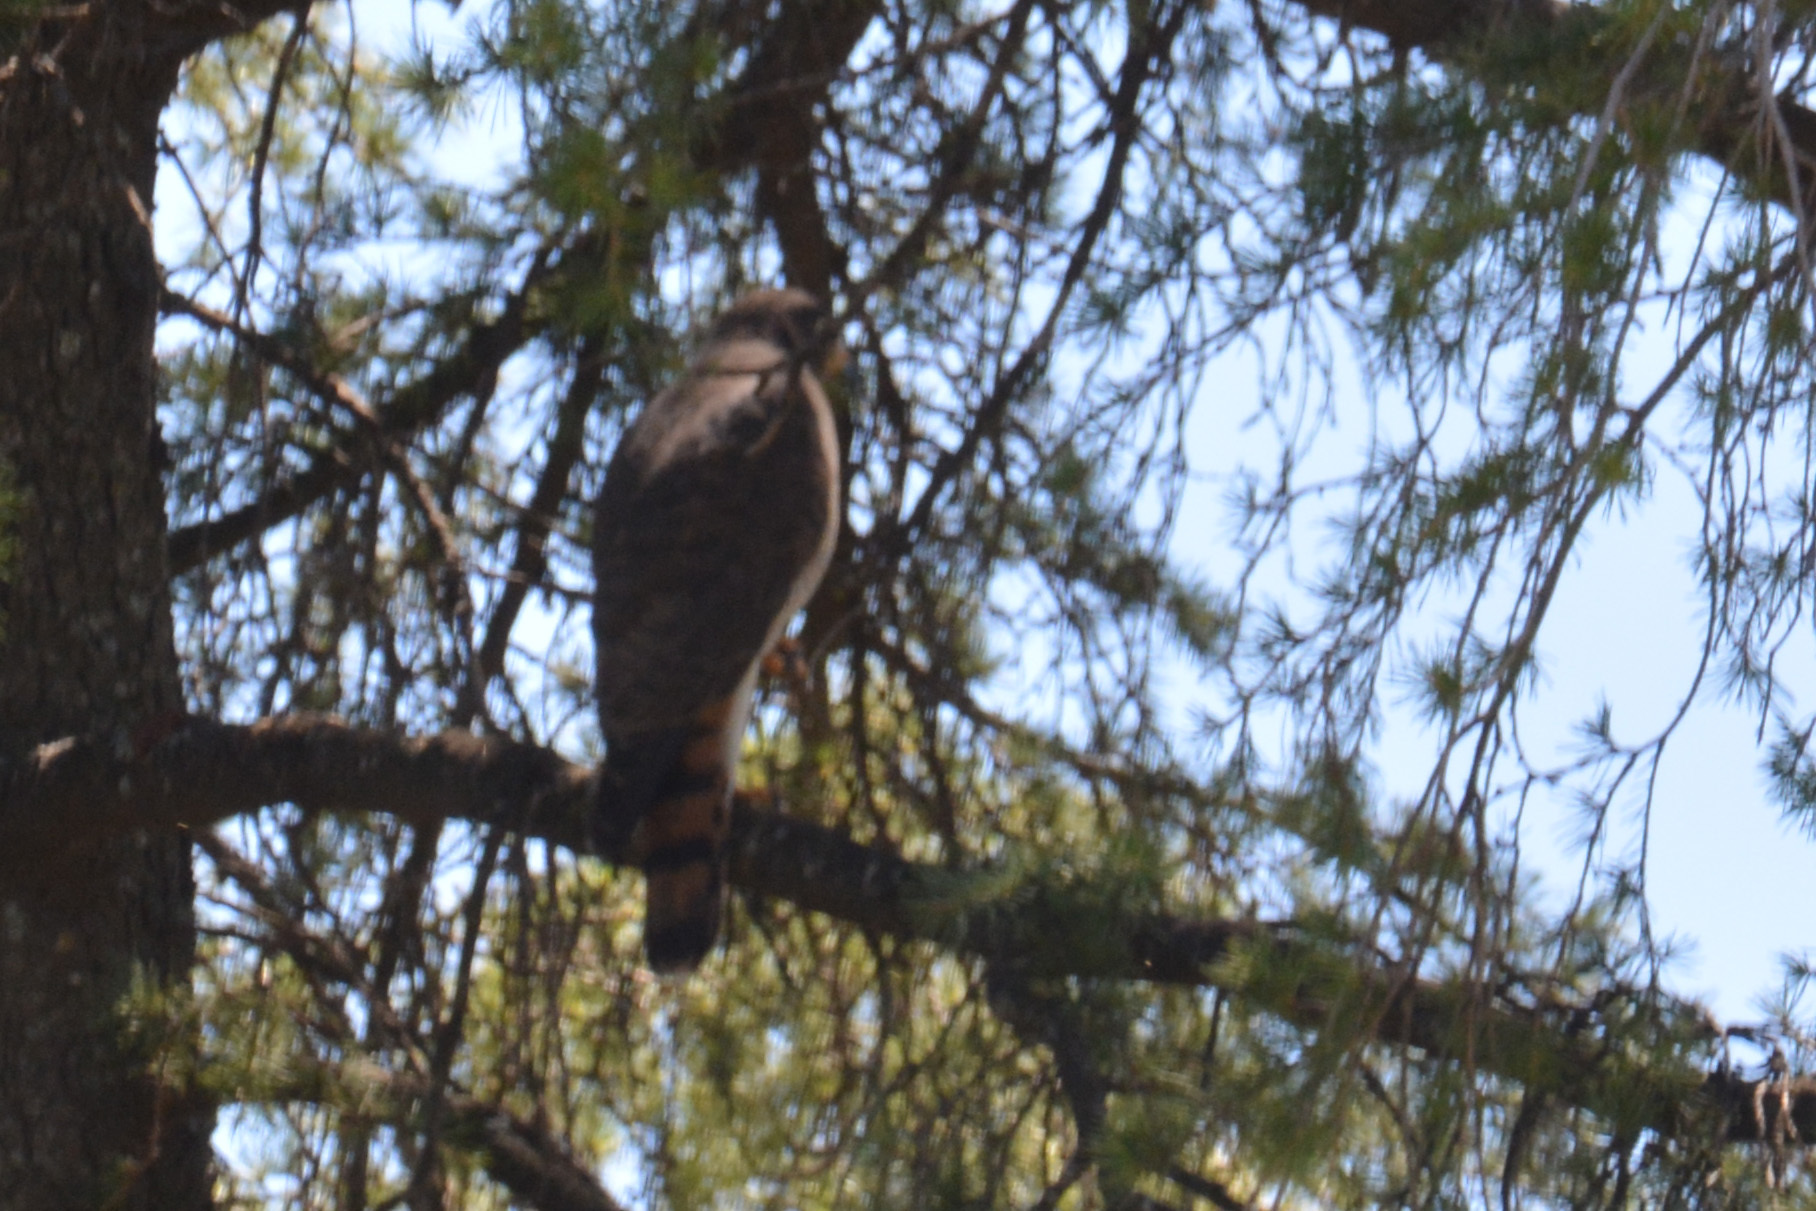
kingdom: Animalia
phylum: Chordata
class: Aves
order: Accipitriformes
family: Accipitridae
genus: Rupornis
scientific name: Rupornis magnirostris
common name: Roadside hawk
